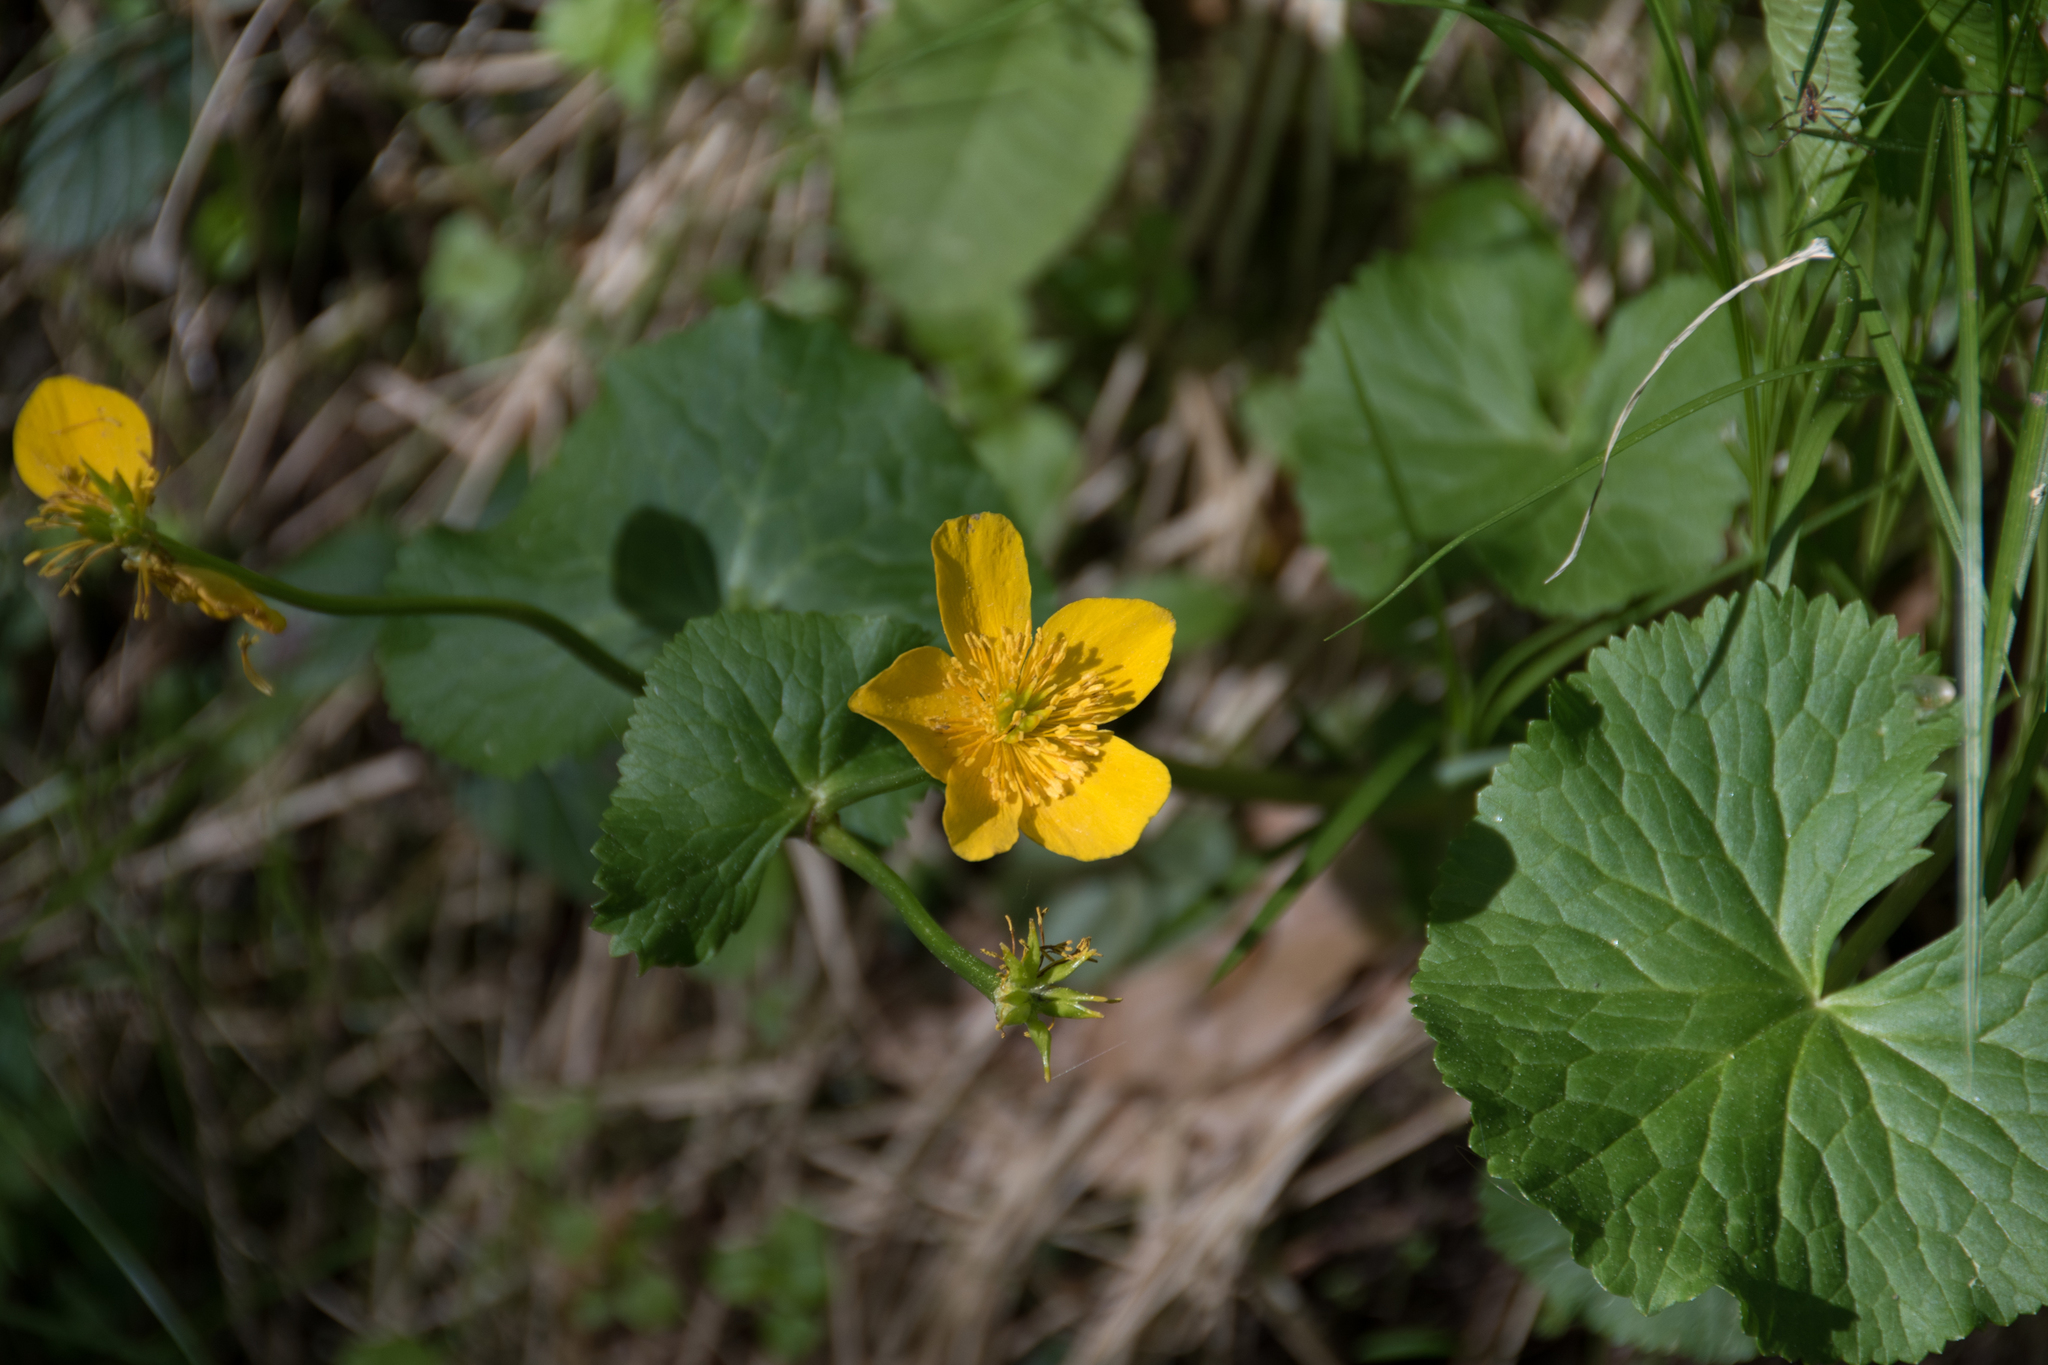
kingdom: Plantae
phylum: Tracheophyta
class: Magnoliopsida
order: Ranunculales
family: Ranunculaceae
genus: Caltha
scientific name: Caltha palustris
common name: Marsh marigold
